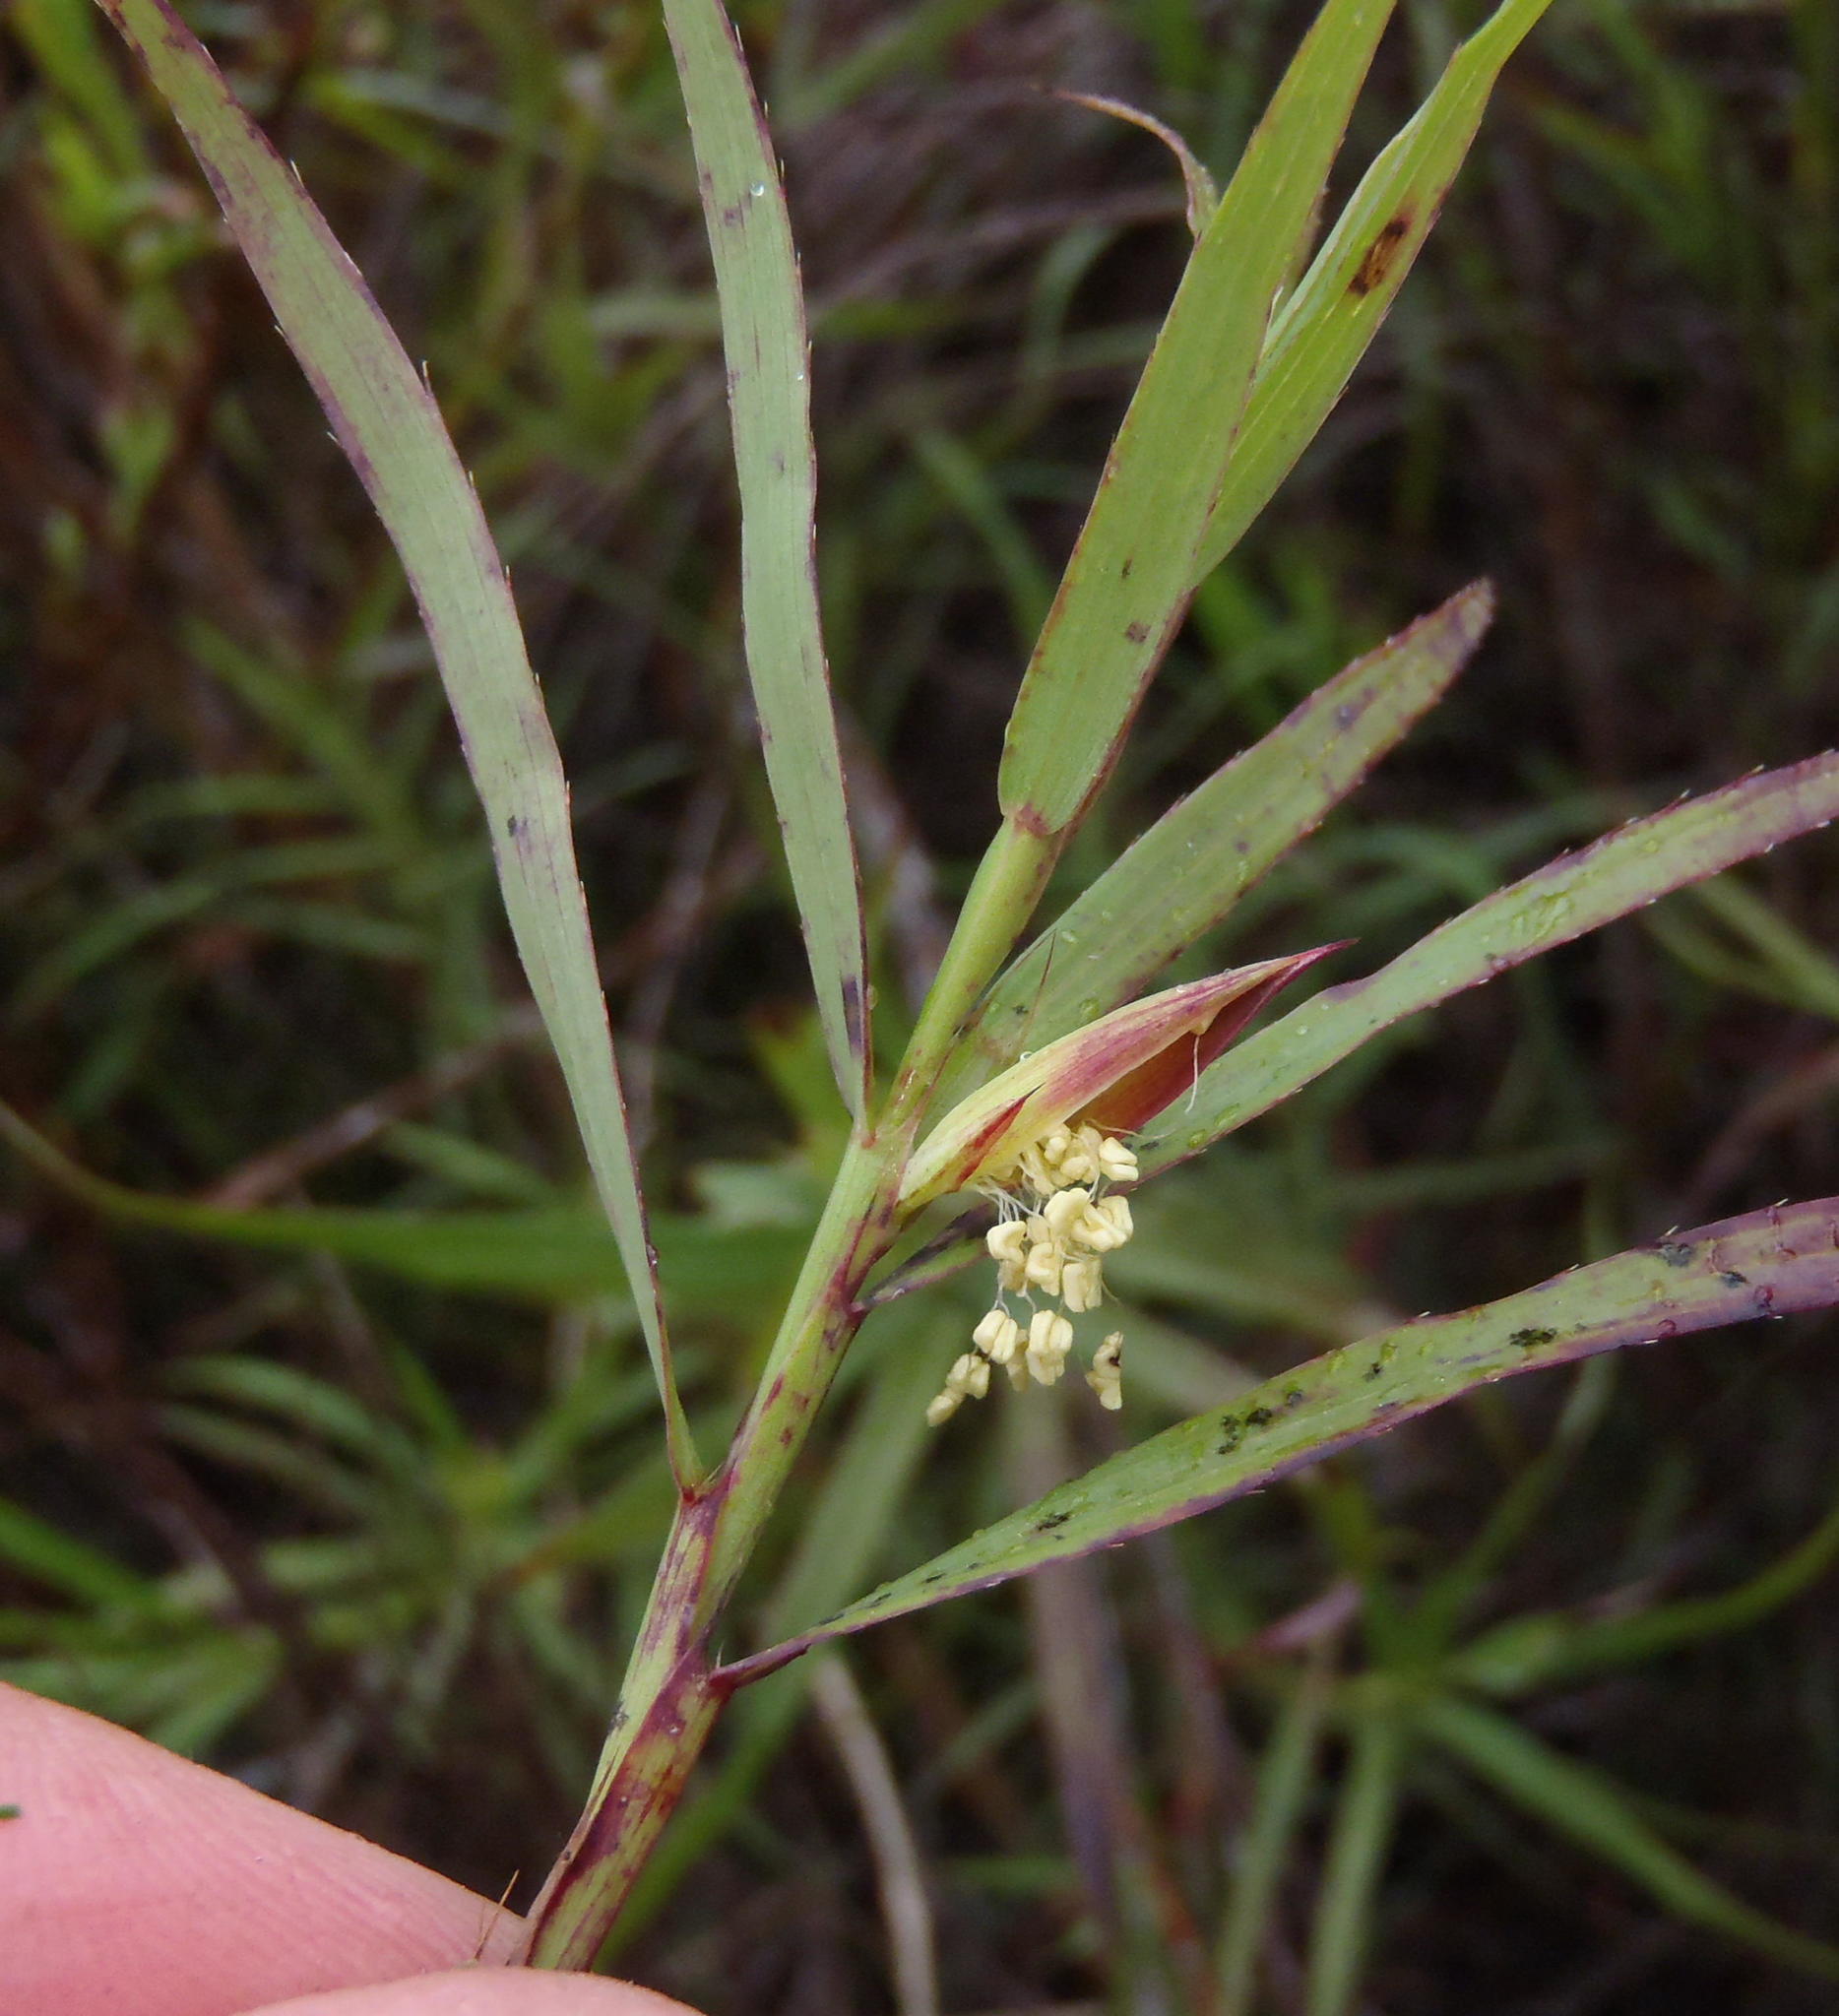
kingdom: Plantae
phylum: Tracheophyta
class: Magnoliopsida
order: Rosales
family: Rosaceae
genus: Cliffortia
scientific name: Cliffortia graminea
